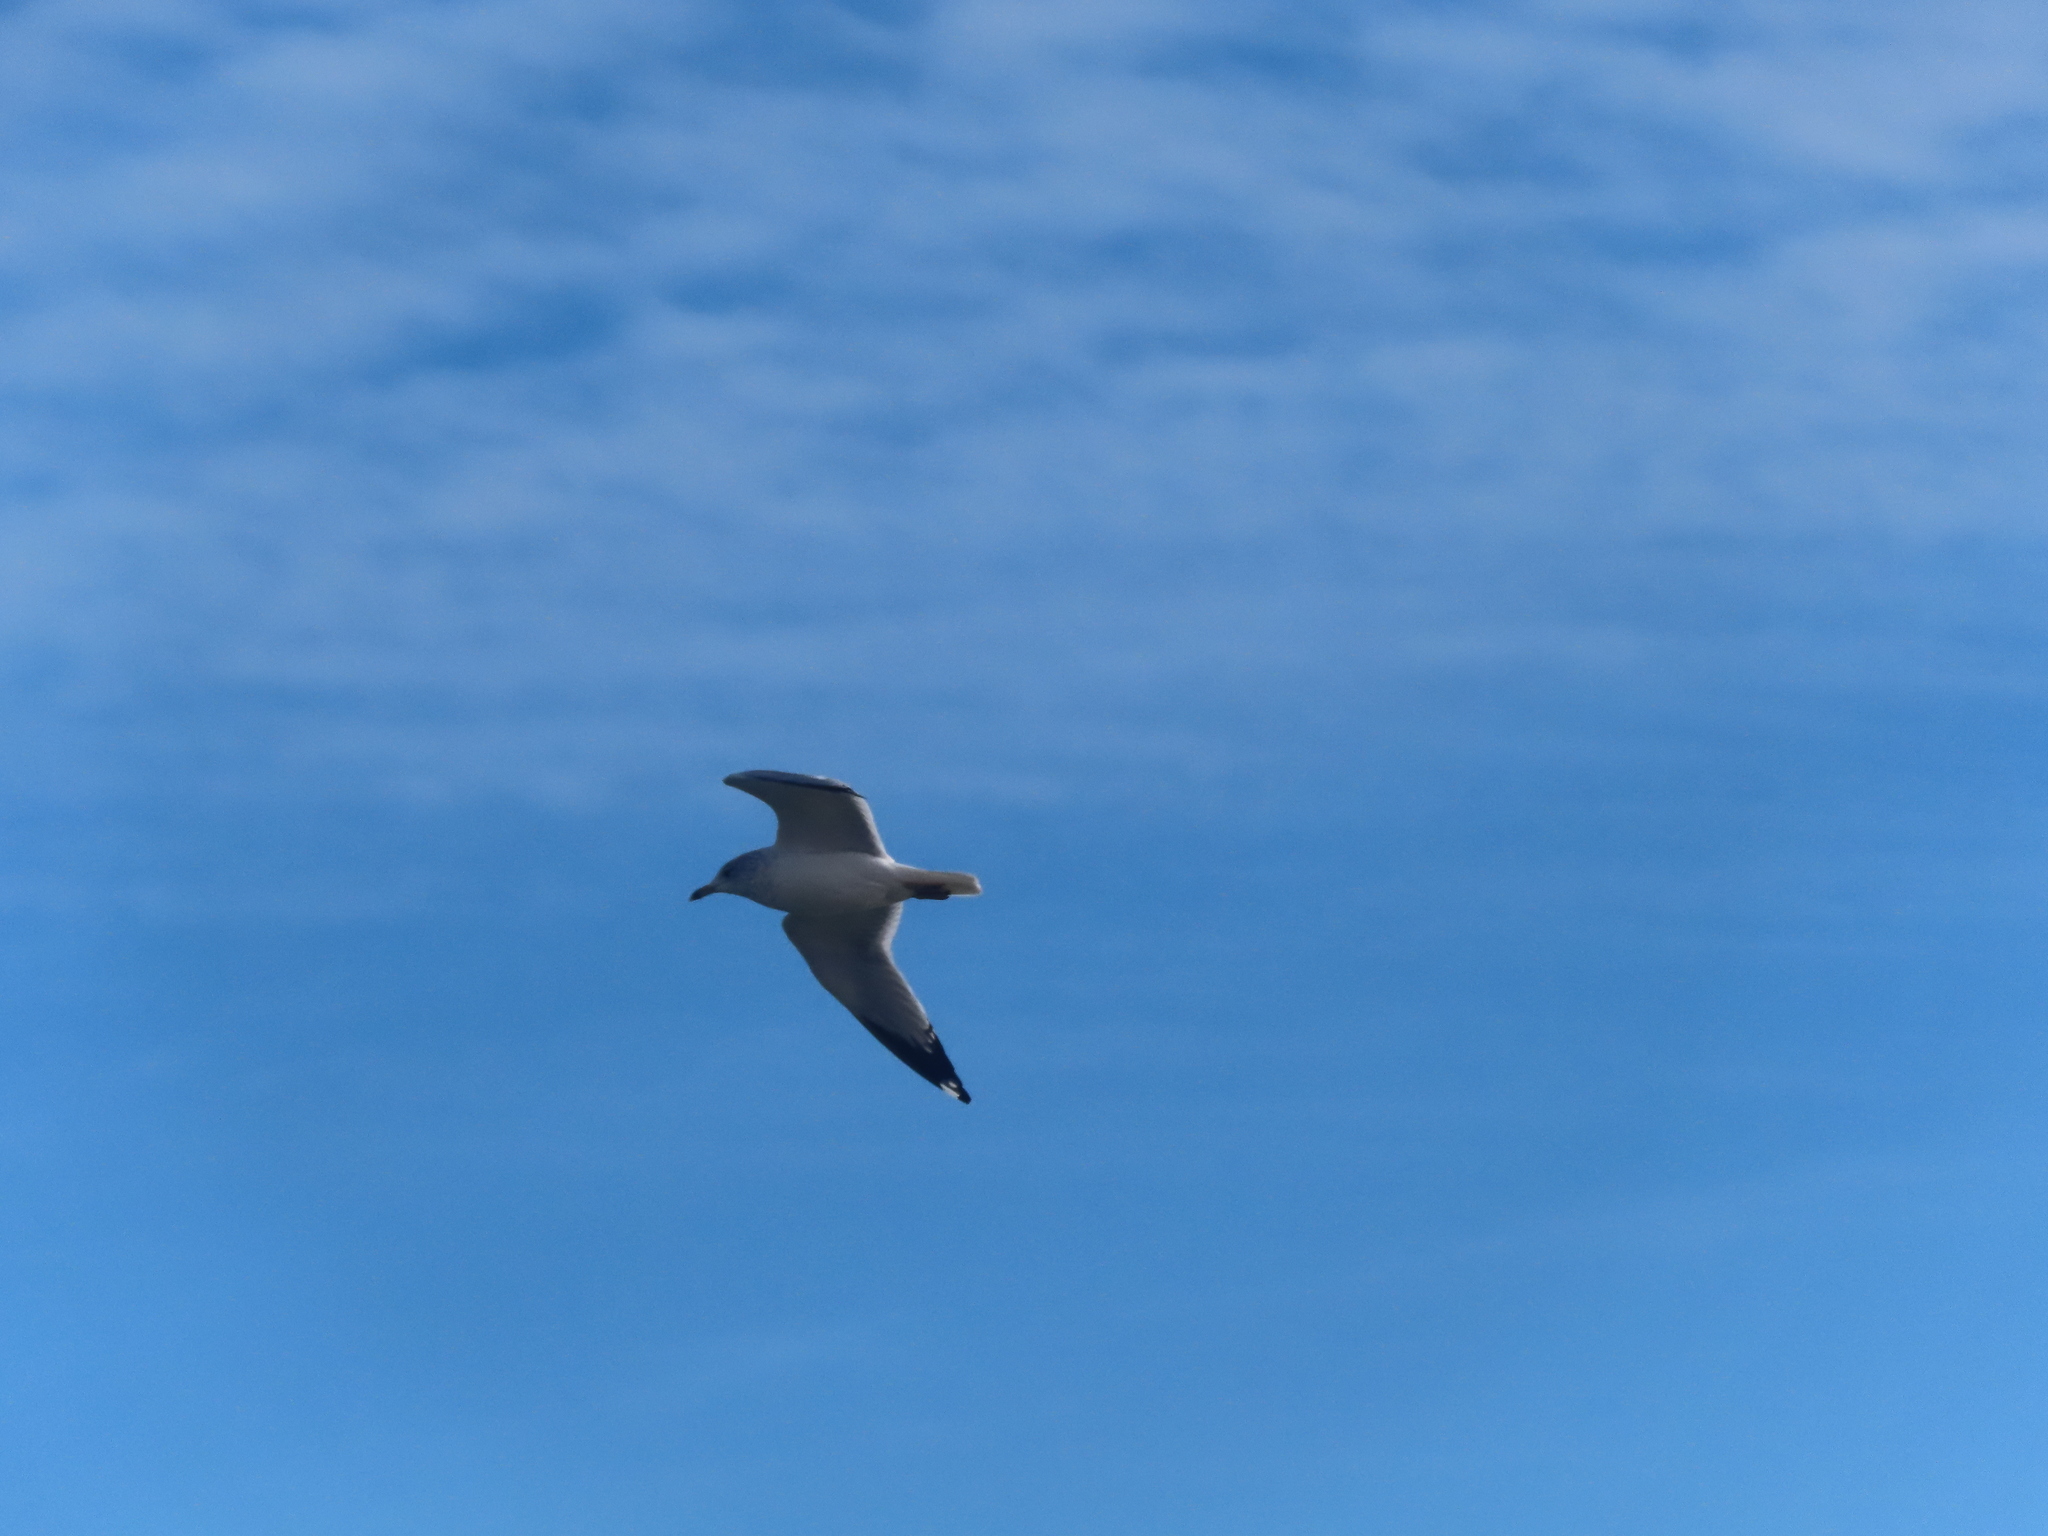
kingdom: Animalia
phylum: Chordata
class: Aves
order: Charadriiformes
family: Laridae
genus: Larus
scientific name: Larus delawarensis
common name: Ring-billed gull
